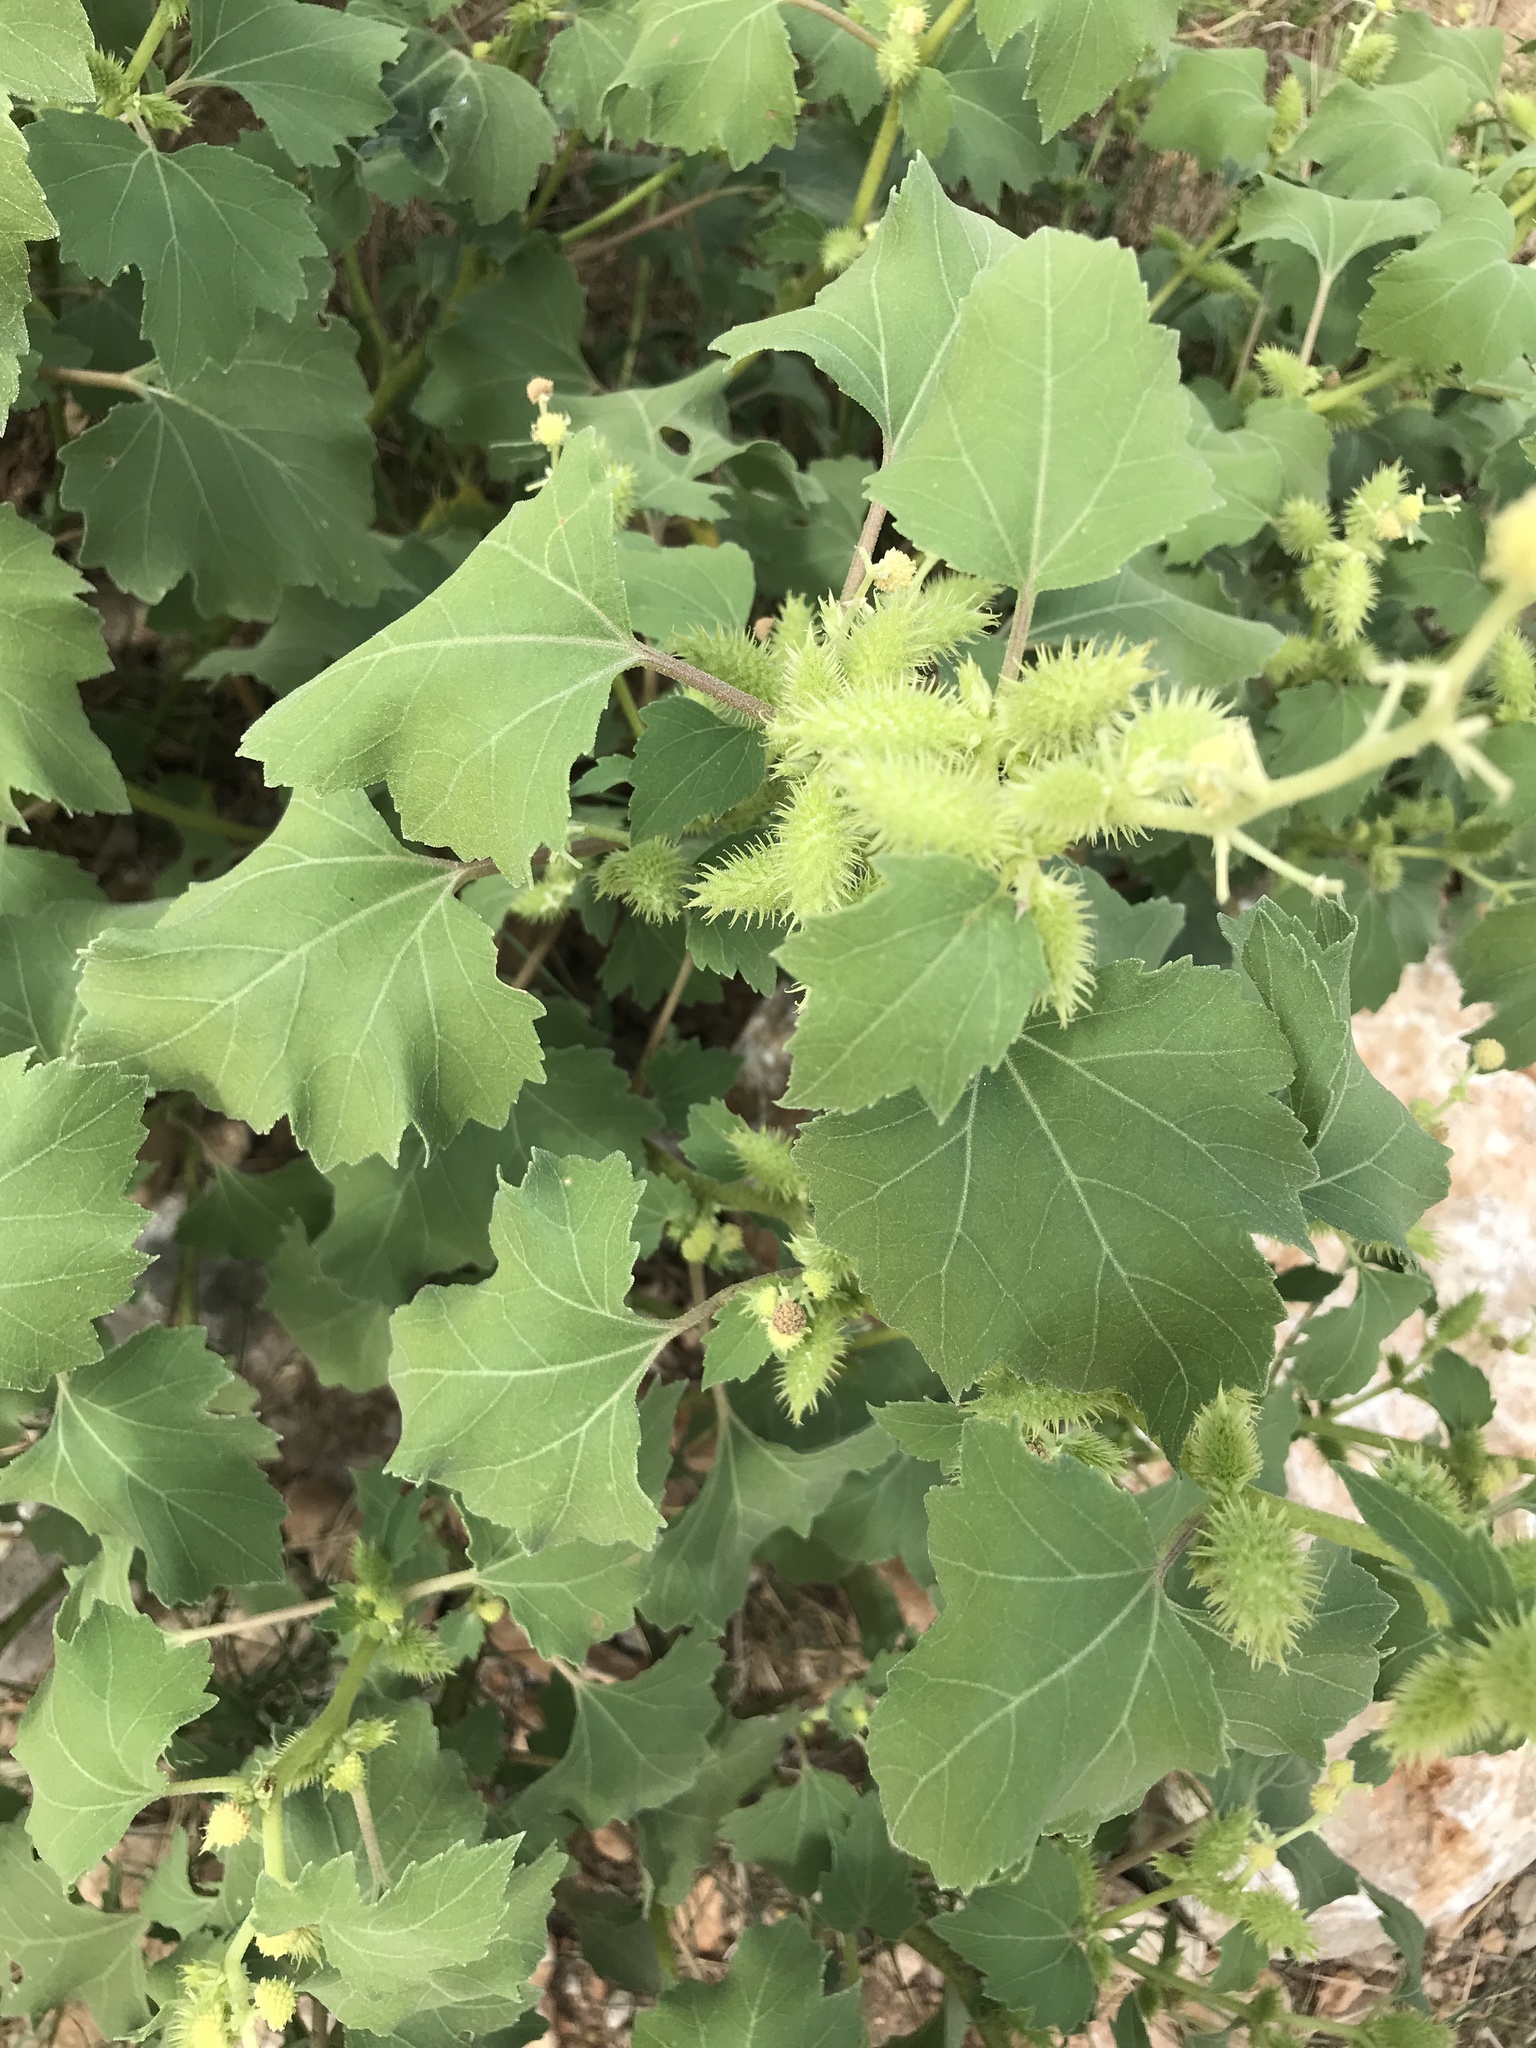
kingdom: Plantae
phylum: Tracheophyta
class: Magnoliopsida
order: Asterales
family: Asteraceae
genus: Xanthium
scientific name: Xanthium strumarium
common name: Rough cocklebur
